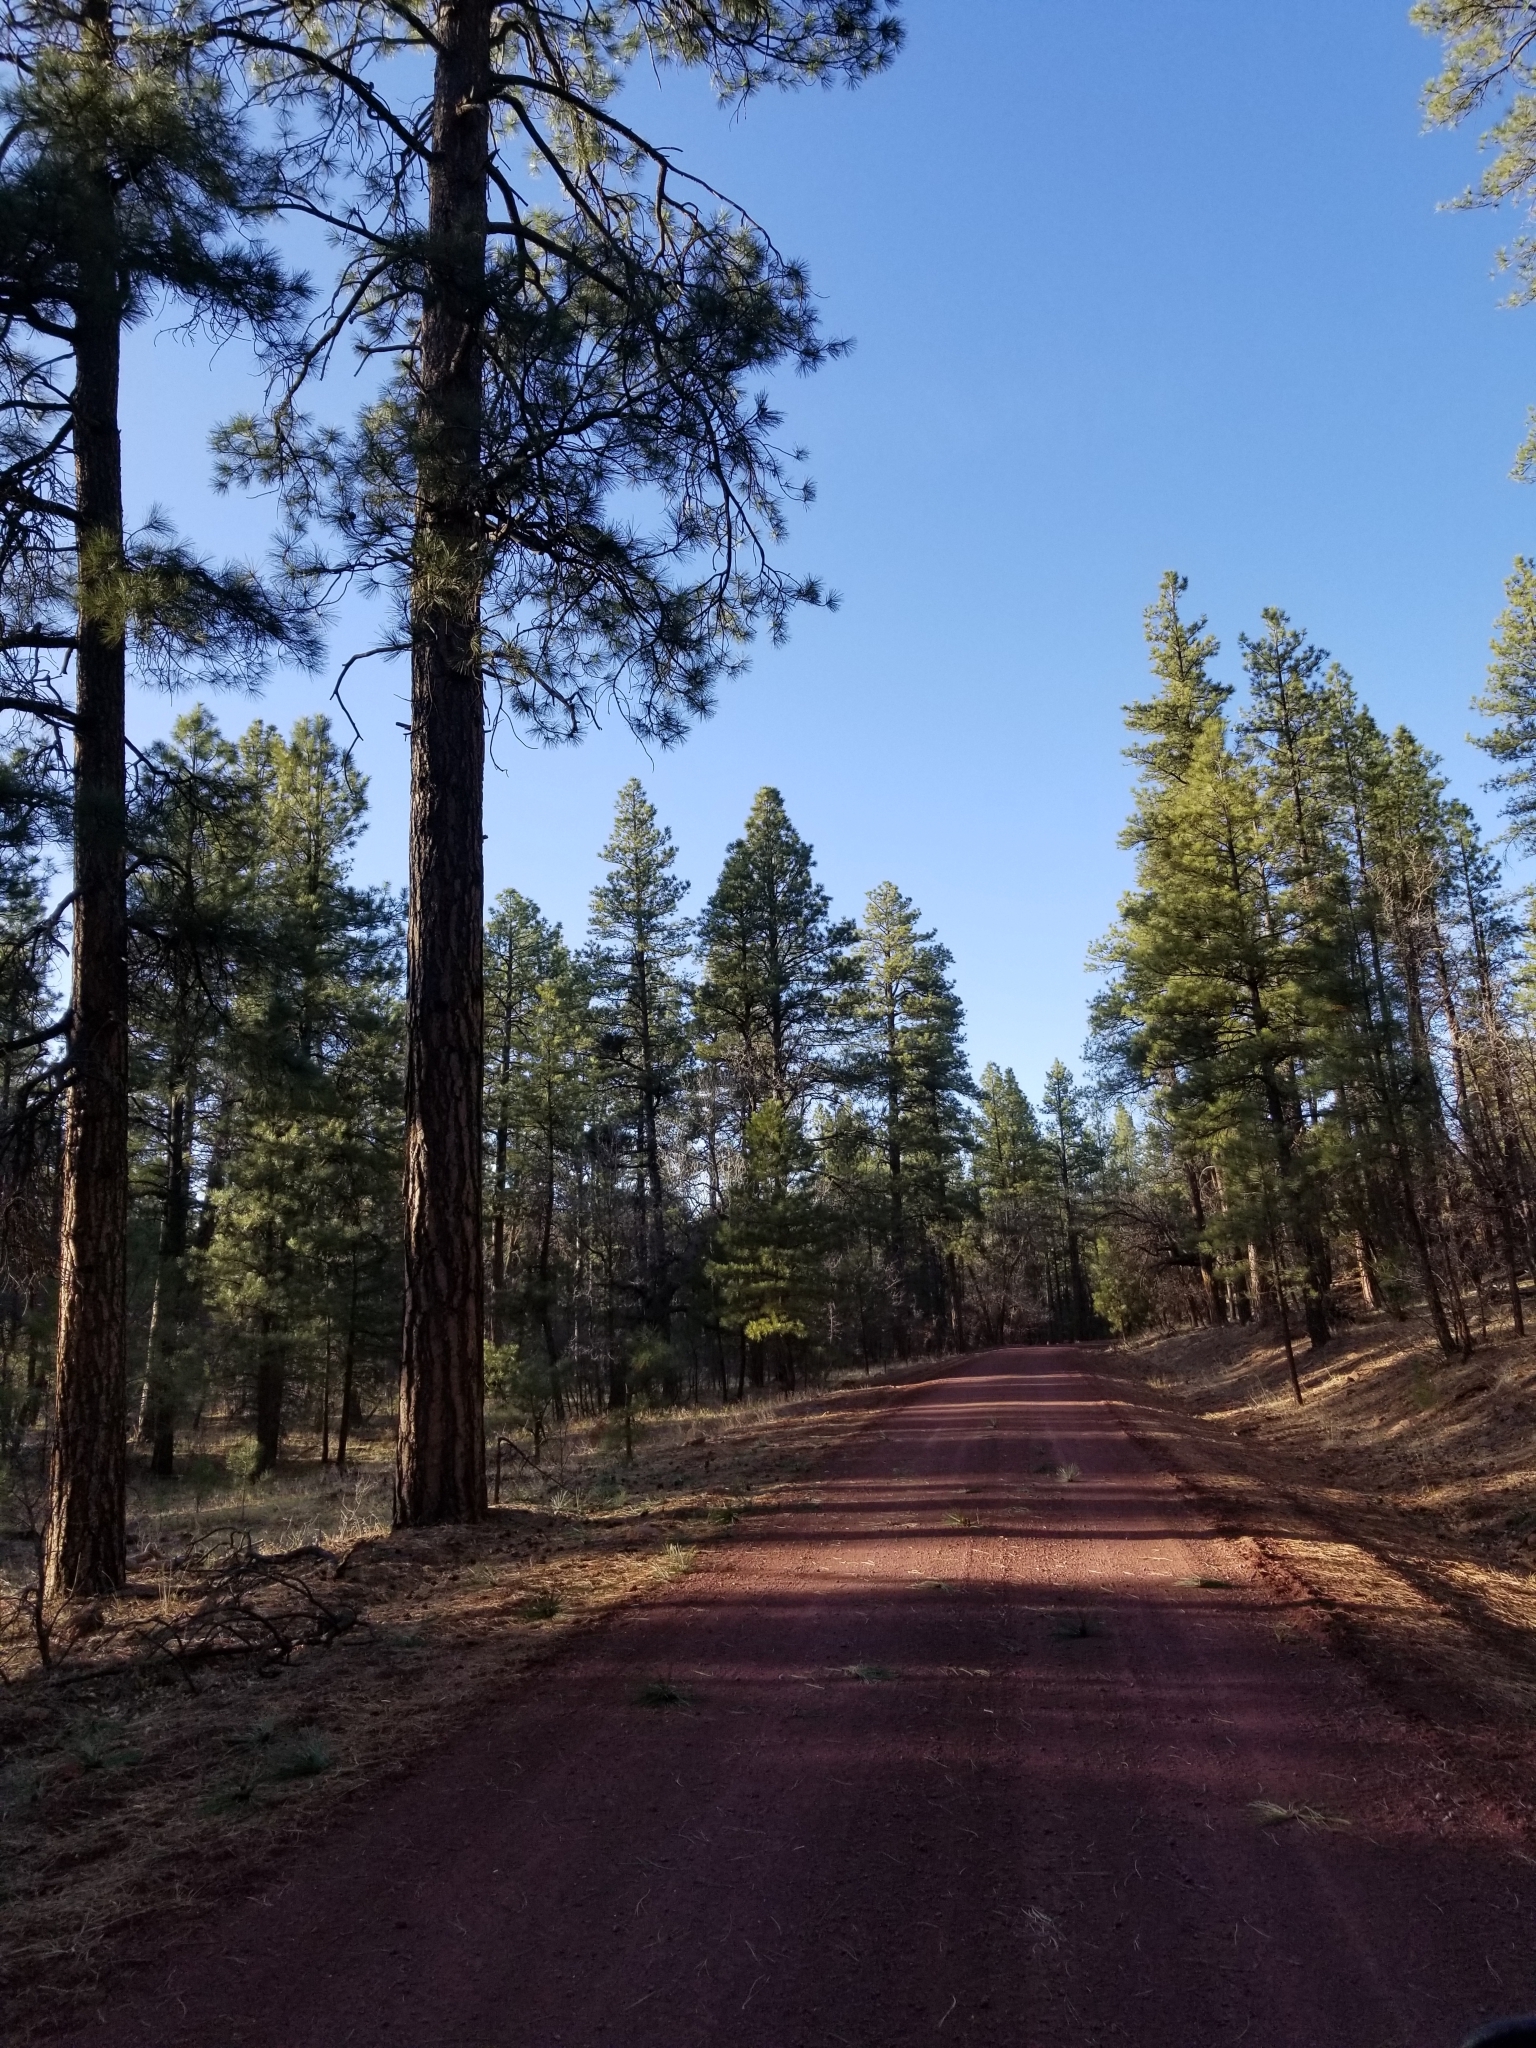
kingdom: Plantae
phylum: Tracheophyta
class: Pinopsida
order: Pinales
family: Pinaceae
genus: Pinus
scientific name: Pinus ponderosa
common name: Western yellow-pine
